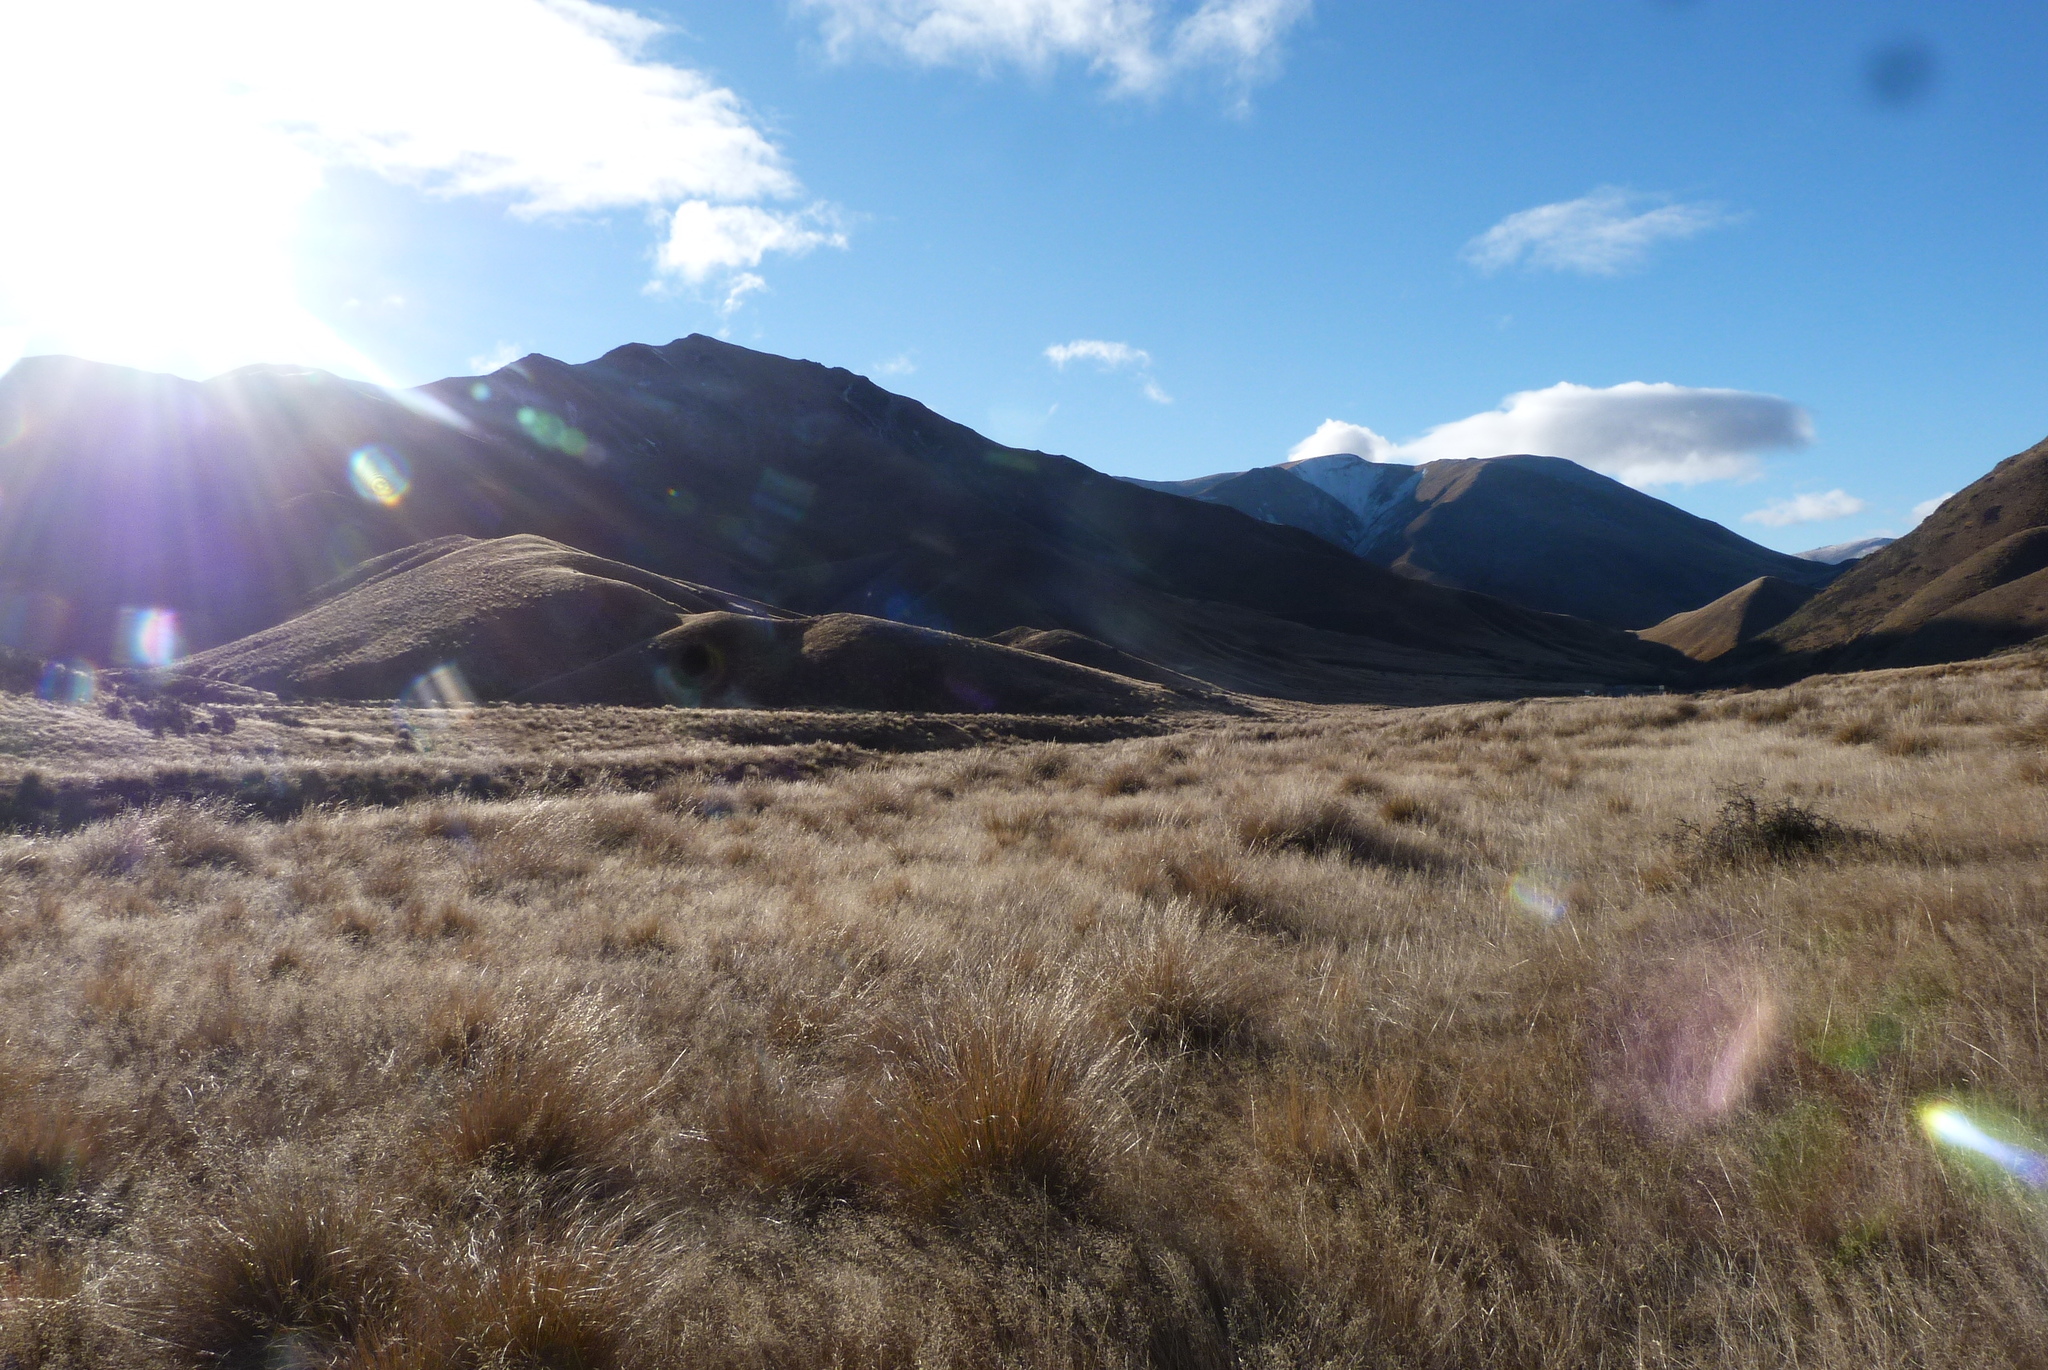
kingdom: Plantae
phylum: Tracheophyta
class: Liliopsida
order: Poales
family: Poaceae
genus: Chionochloa
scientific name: Chionochloa rigida
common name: Narrow leaved snow tussock
